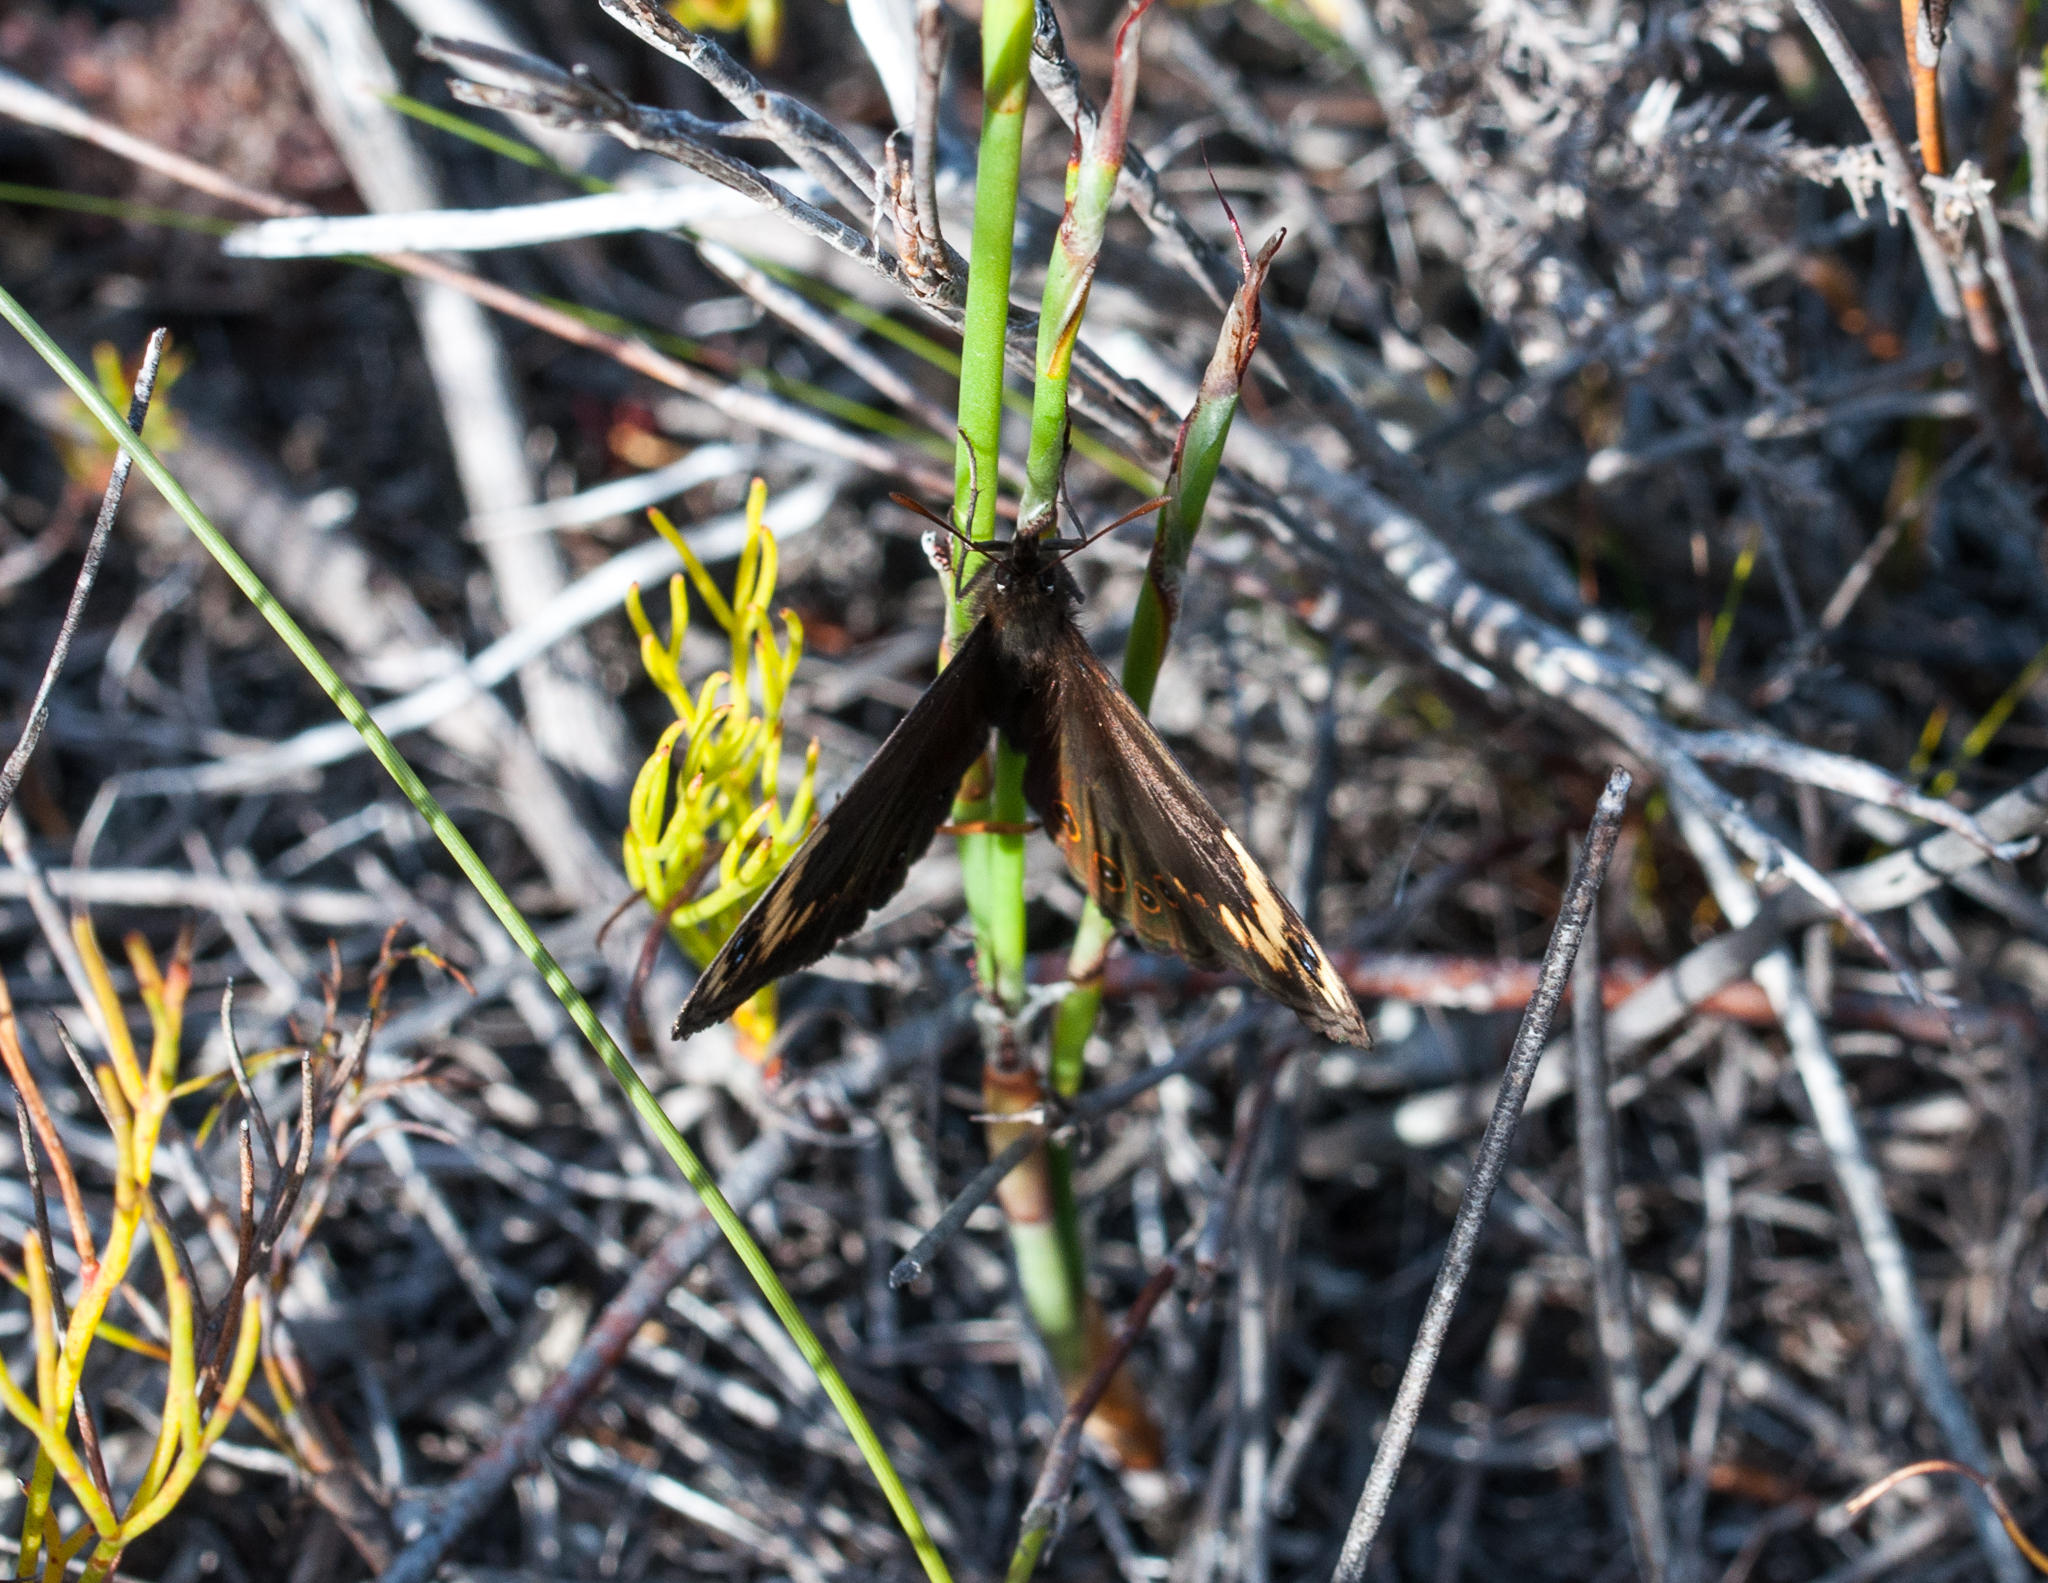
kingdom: Animalia
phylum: Arthropoda
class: Insecta
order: Lepidoptera
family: Nymphalidae
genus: Dira
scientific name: Dira clytus
